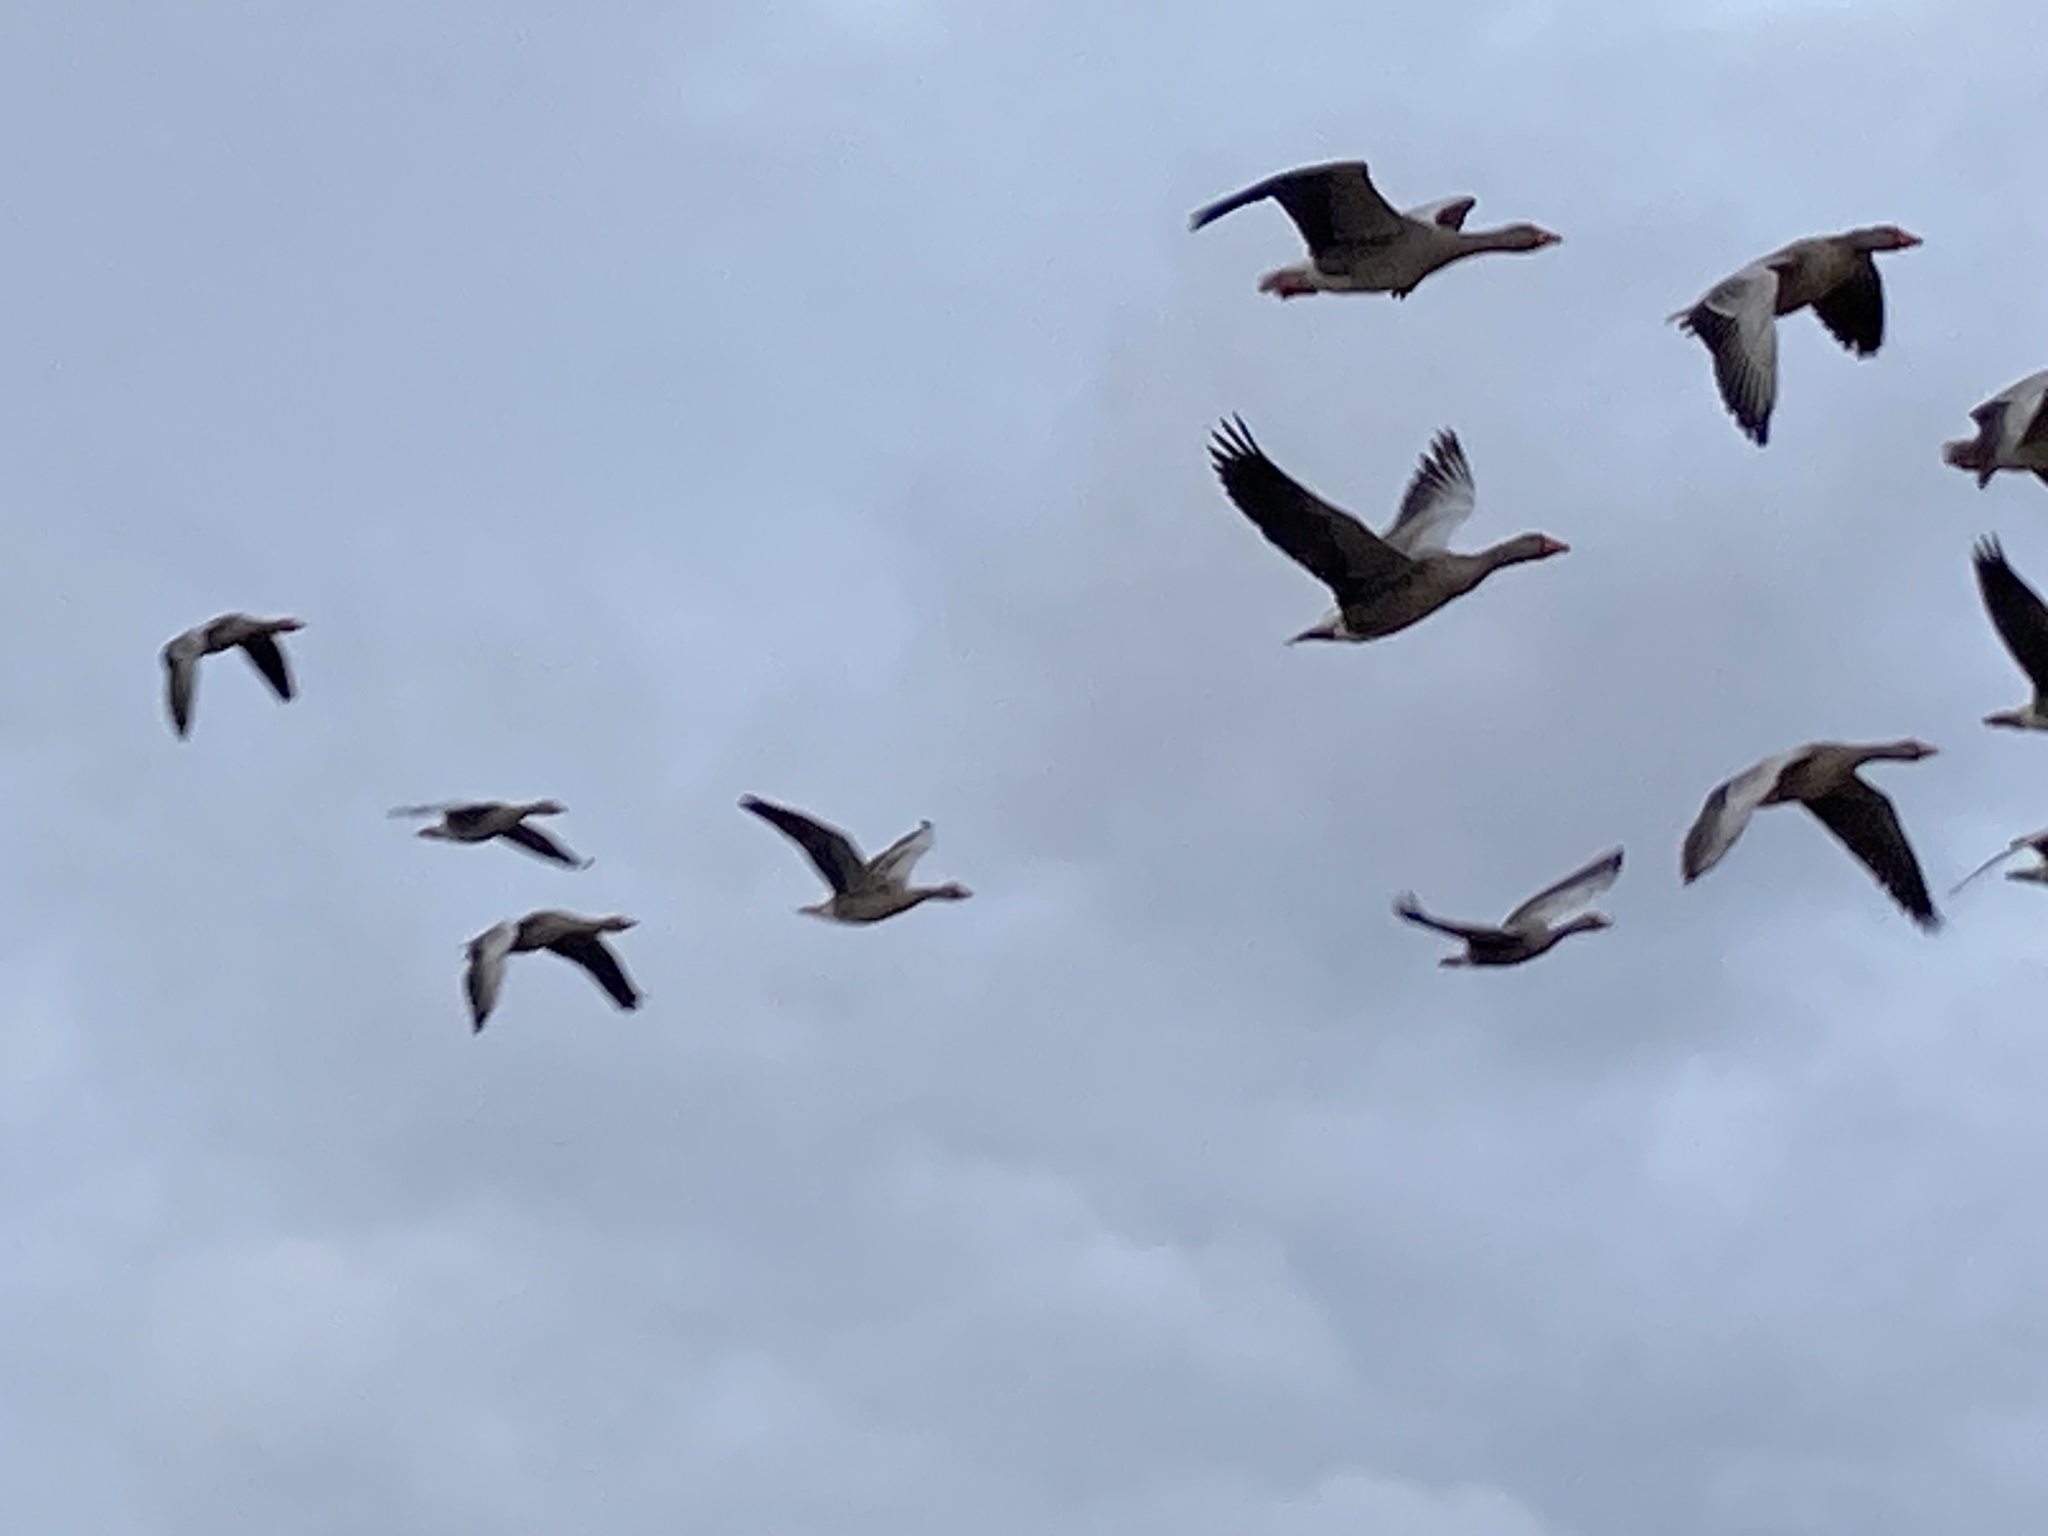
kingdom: Animalia
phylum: Chordata
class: Aves
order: Anseriformes
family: Anatidae
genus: Anser
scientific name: Anser anser
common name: Greylag goose
